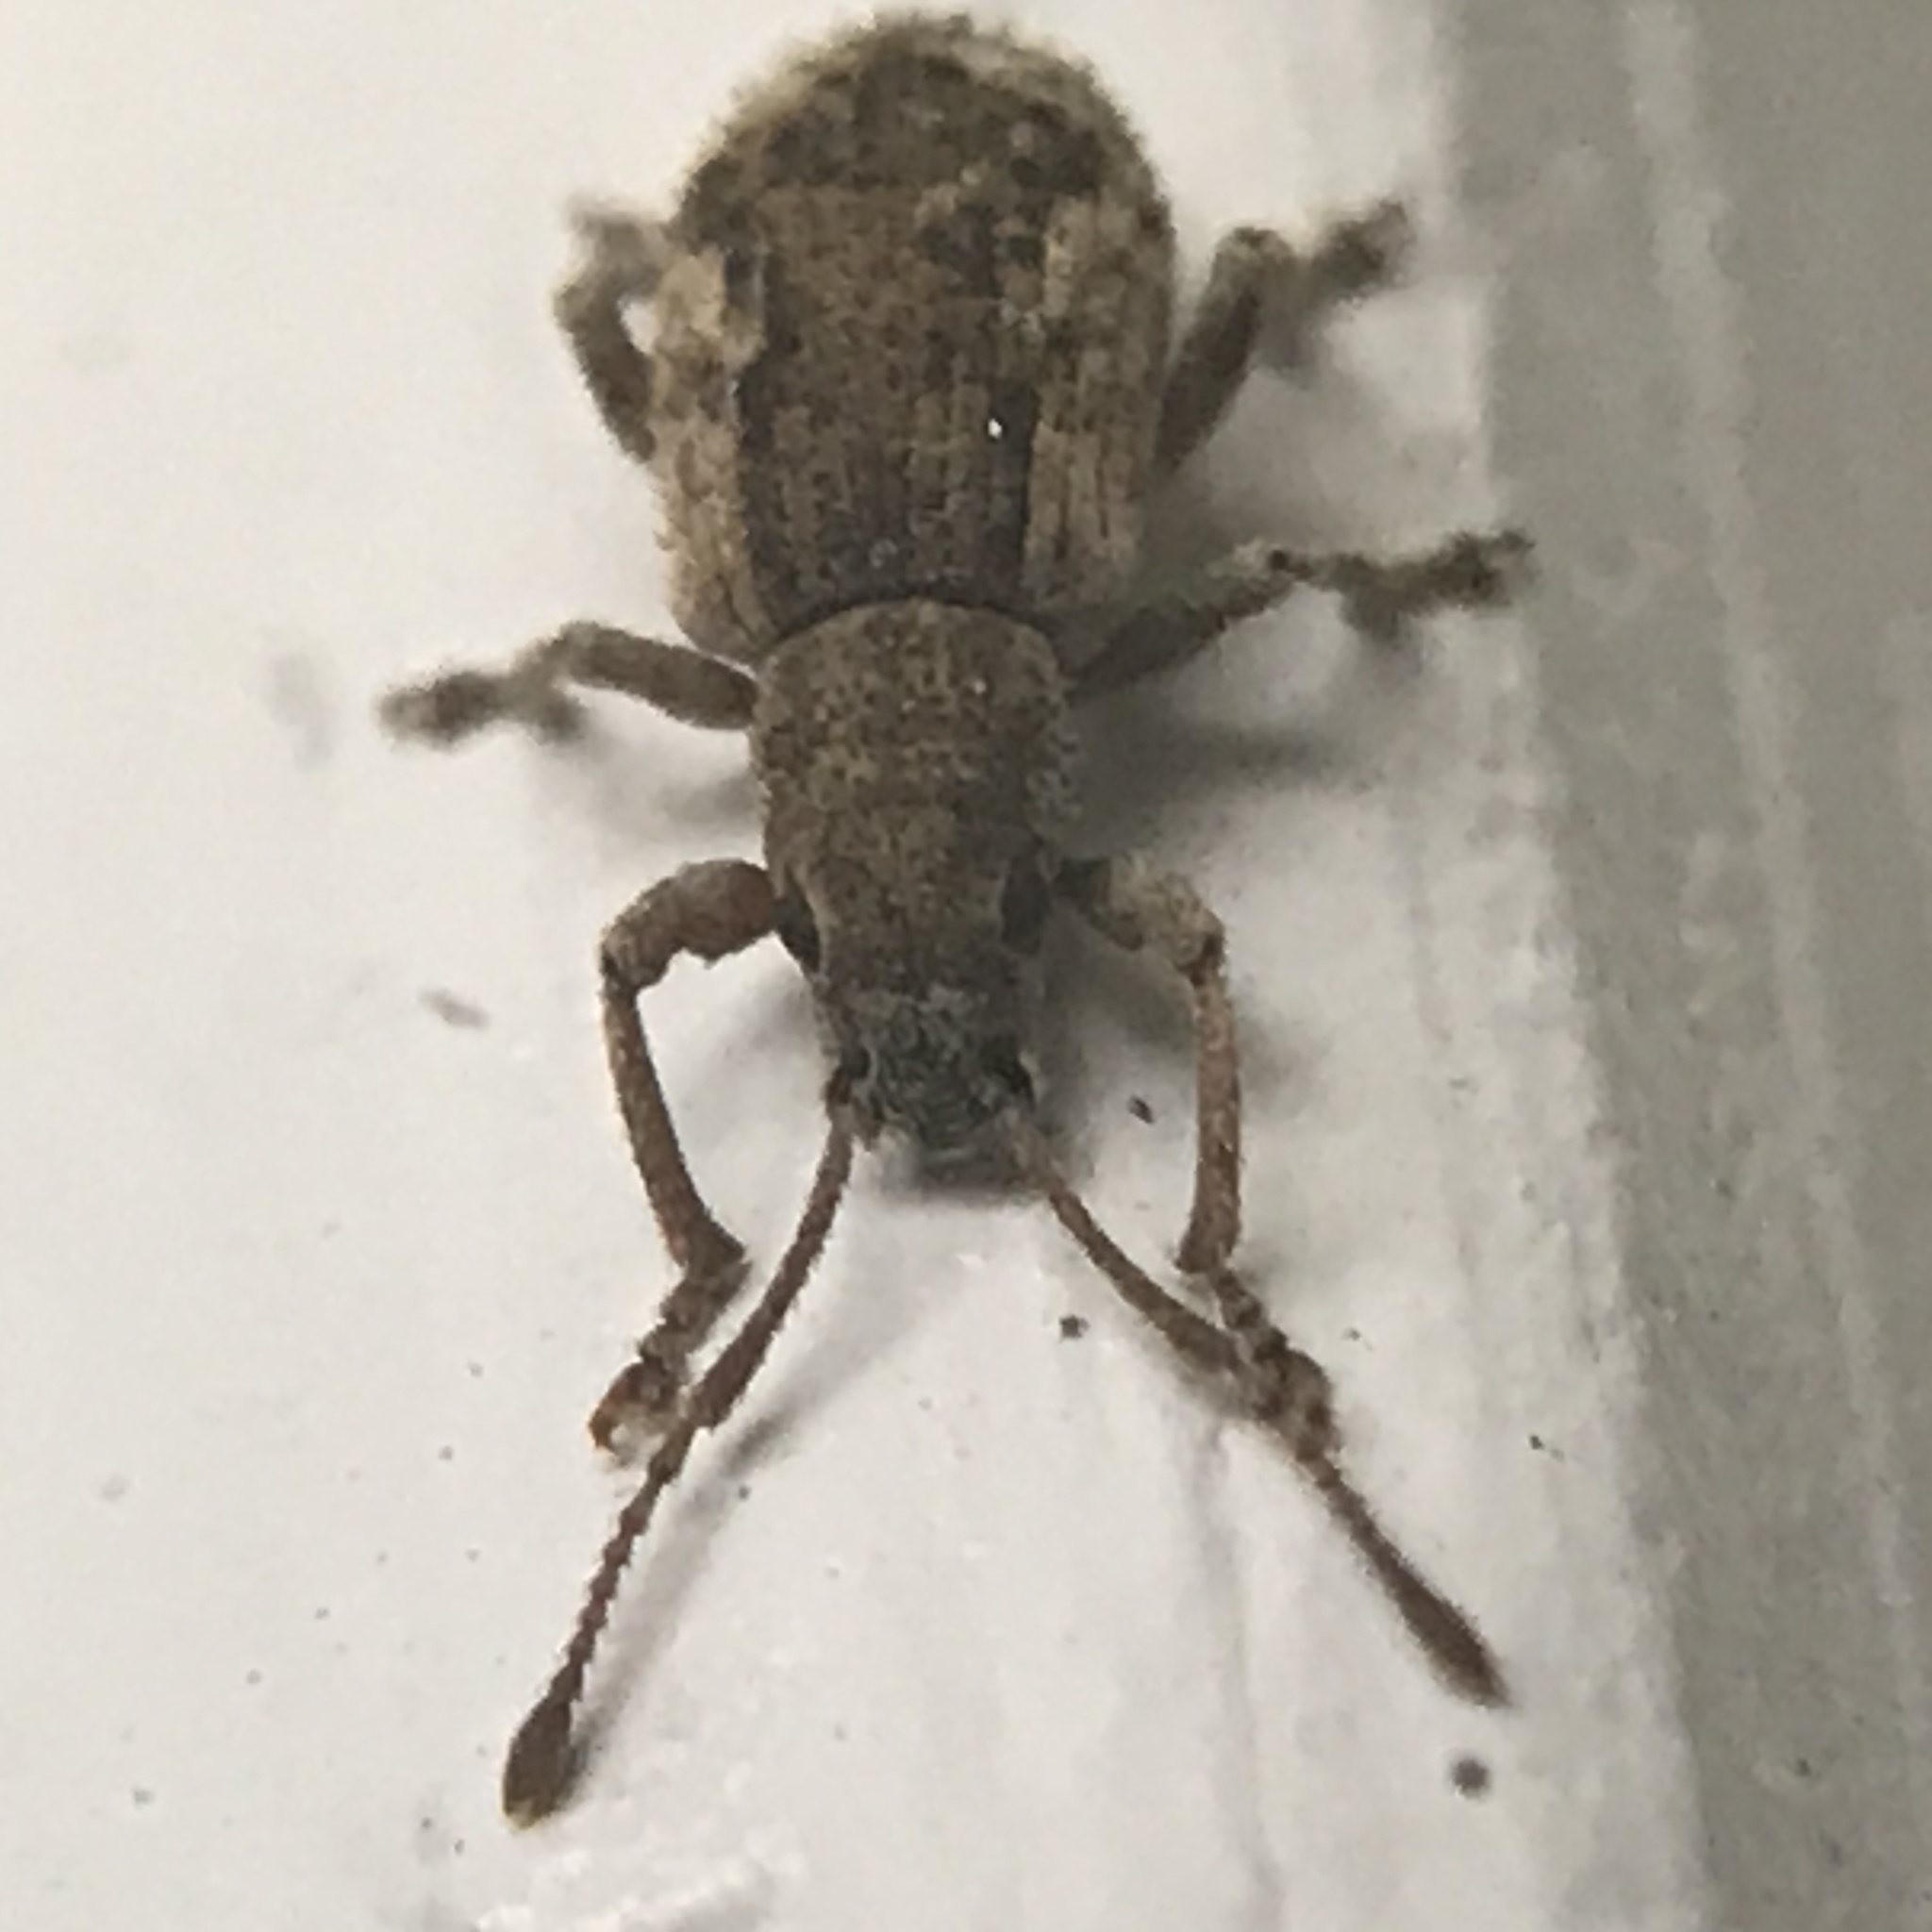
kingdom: Animalia
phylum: Arthropoda
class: Insecta
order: Coleoptera
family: Curculionidae
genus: Pseudoedophrys
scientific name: Pseudoedophrys hilleri
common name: Weevil
